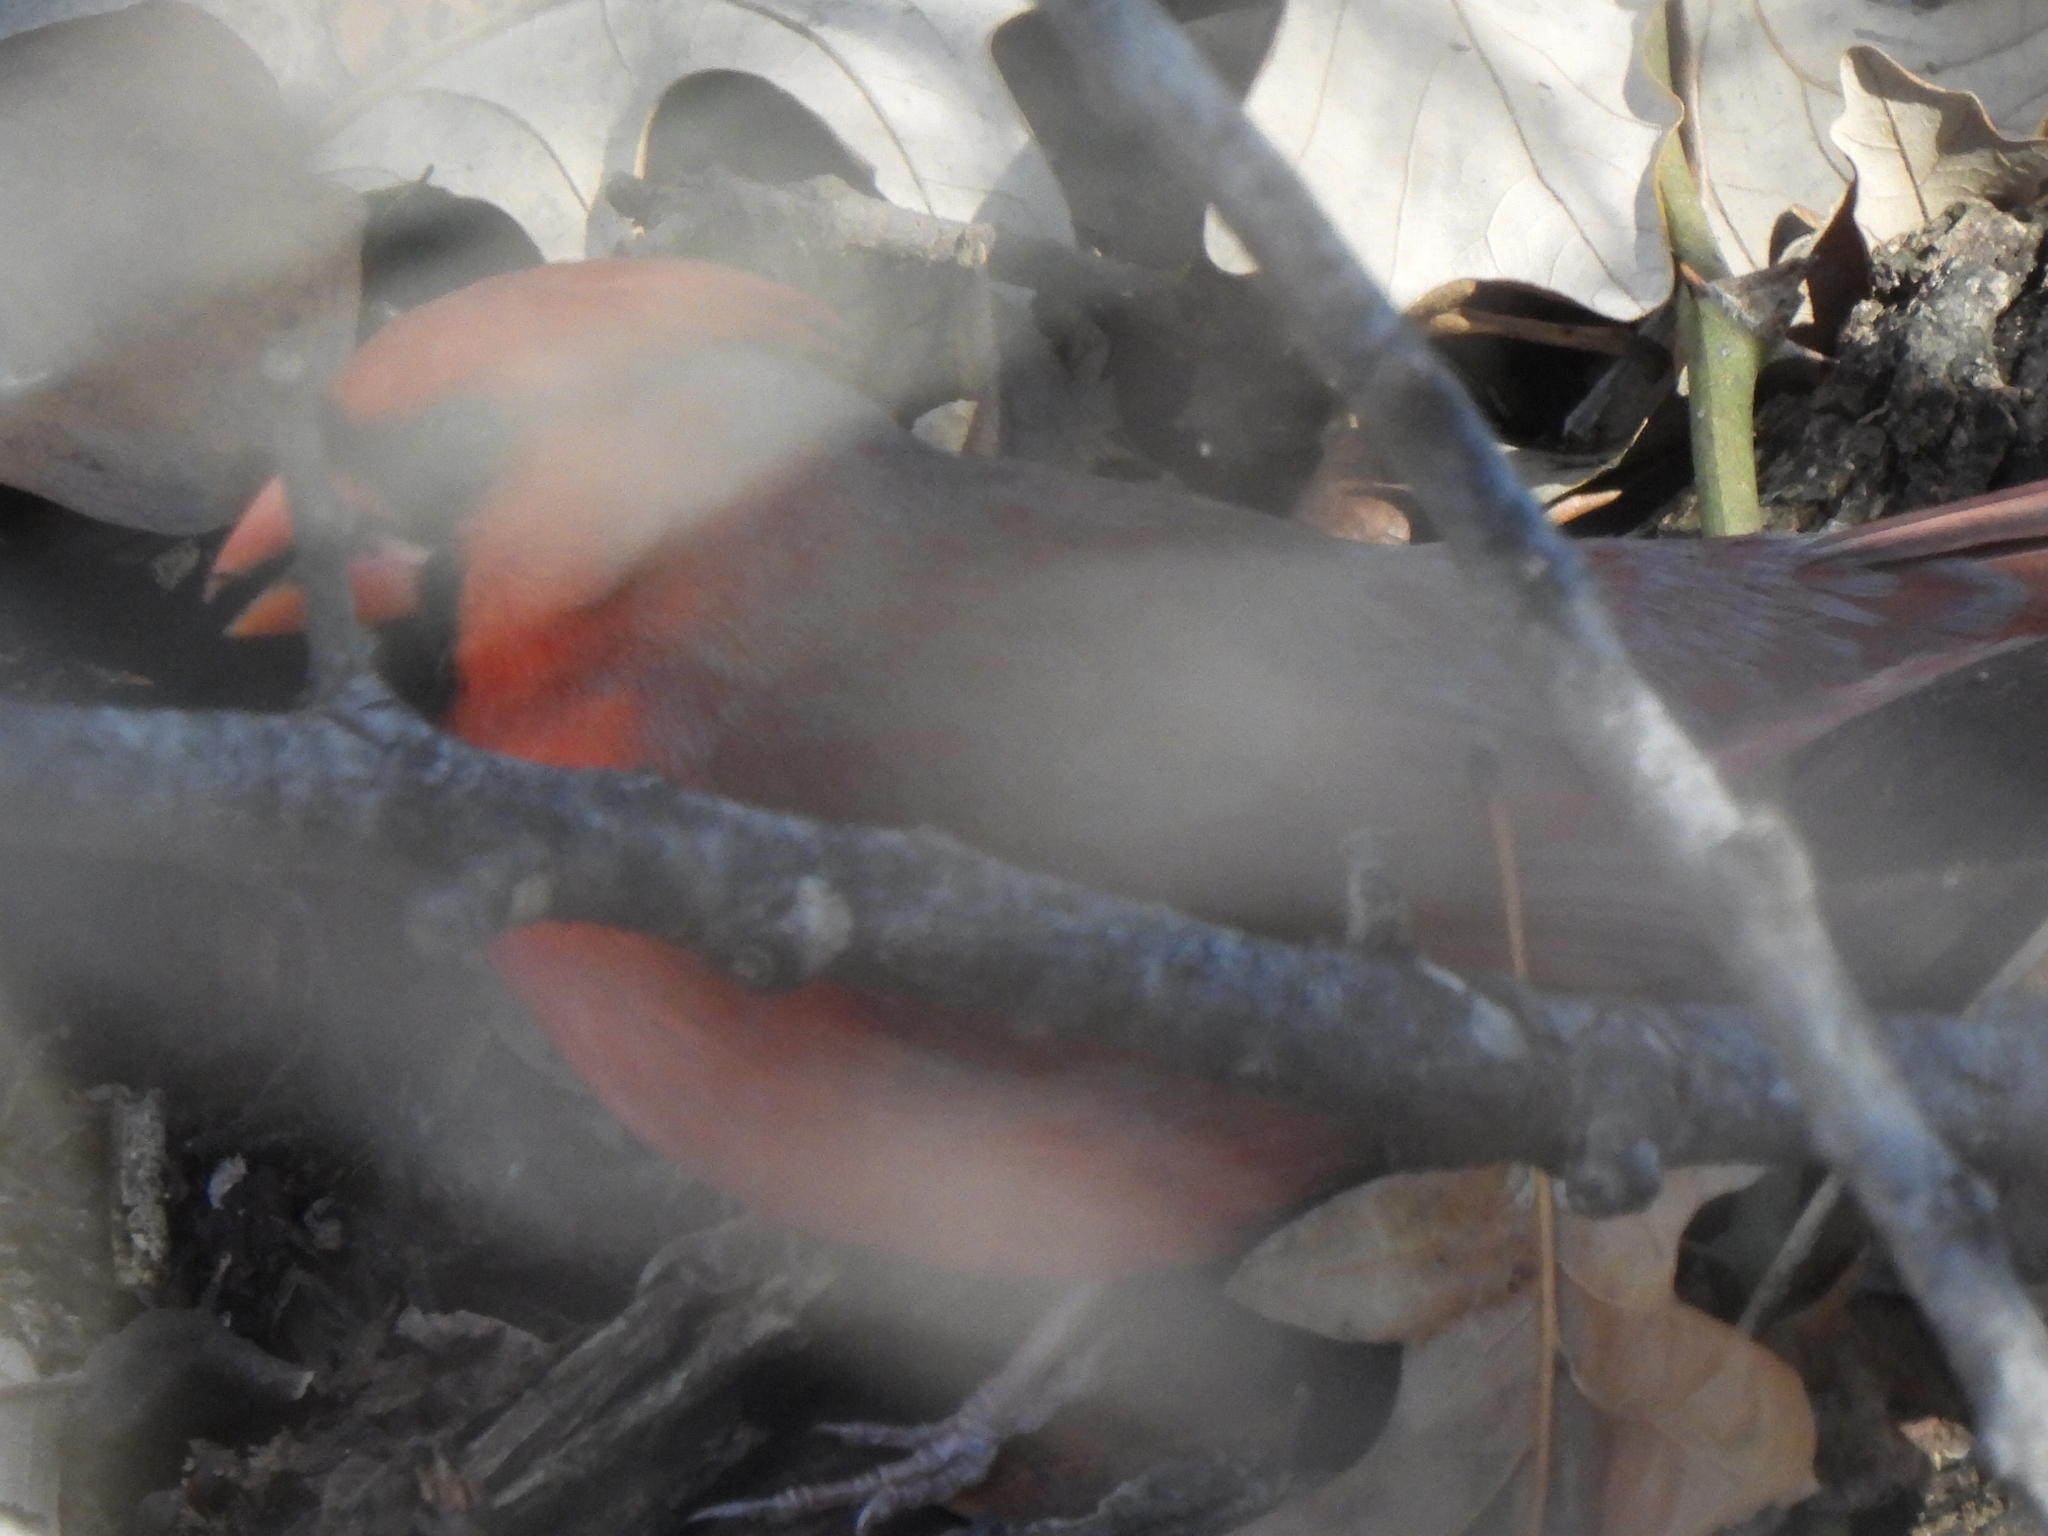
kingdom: Animalia
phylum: Chordata
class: Aves
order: Passeriformes
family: Cardinalidae
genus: Cardinalis
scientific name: Cardinalis cardinalis
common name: Northern cardinal
